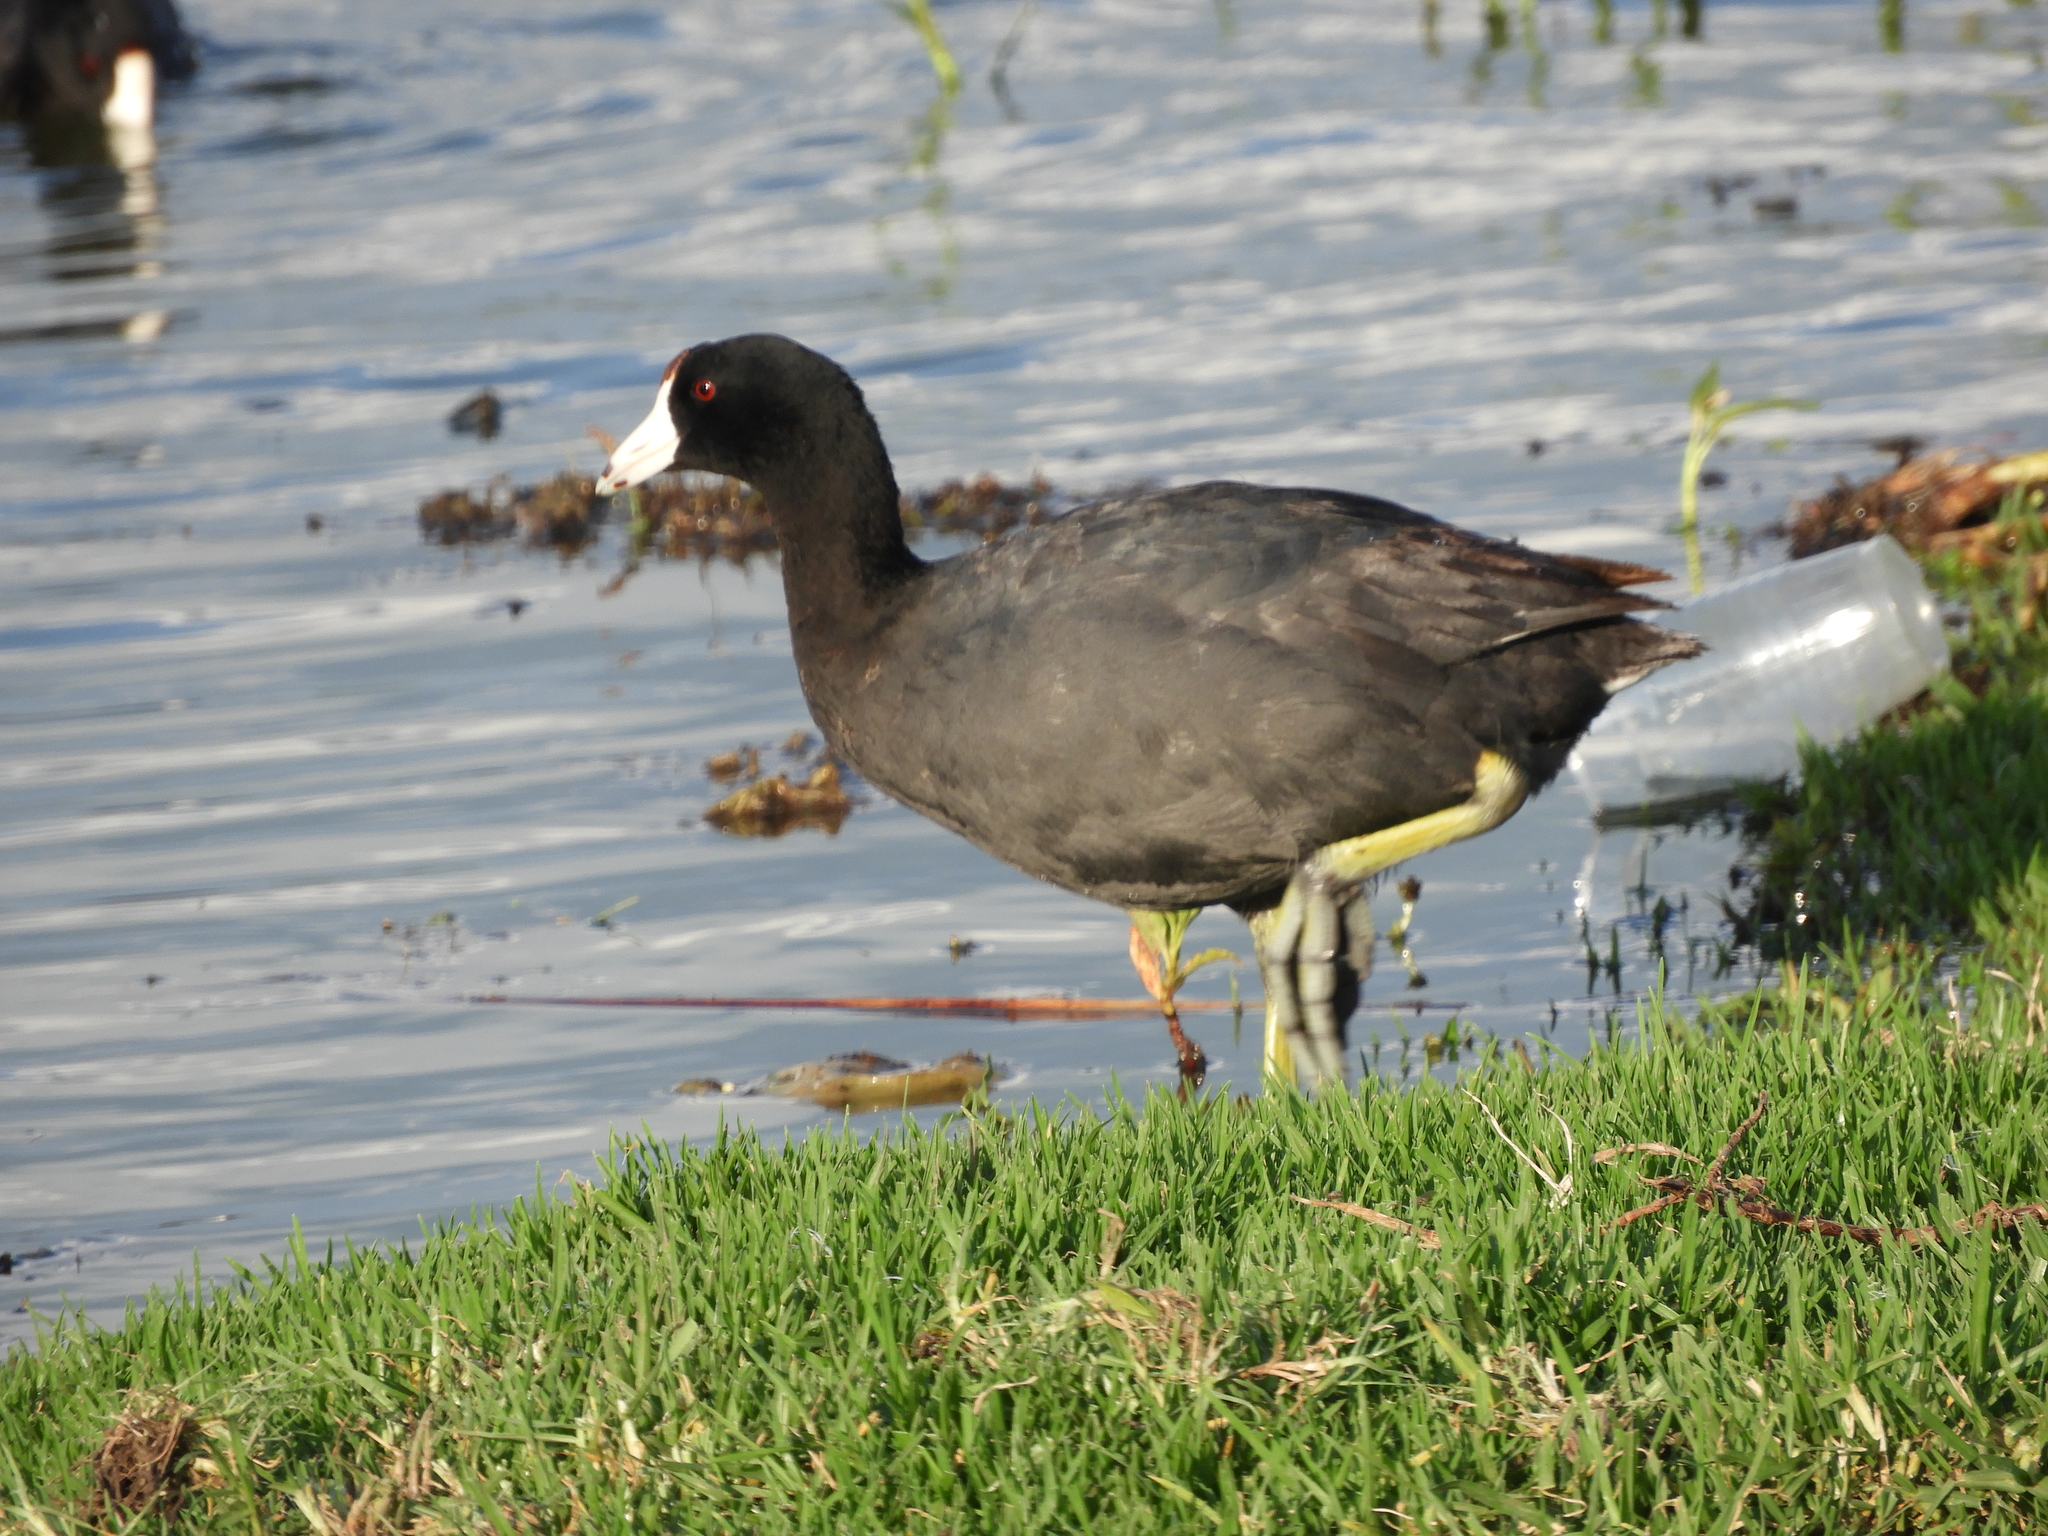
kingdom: Animalia
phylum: Chordata
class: Aves
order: Gruiformes
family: Rallidae
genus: Fulica
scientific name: Fulica americana
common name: American coot
